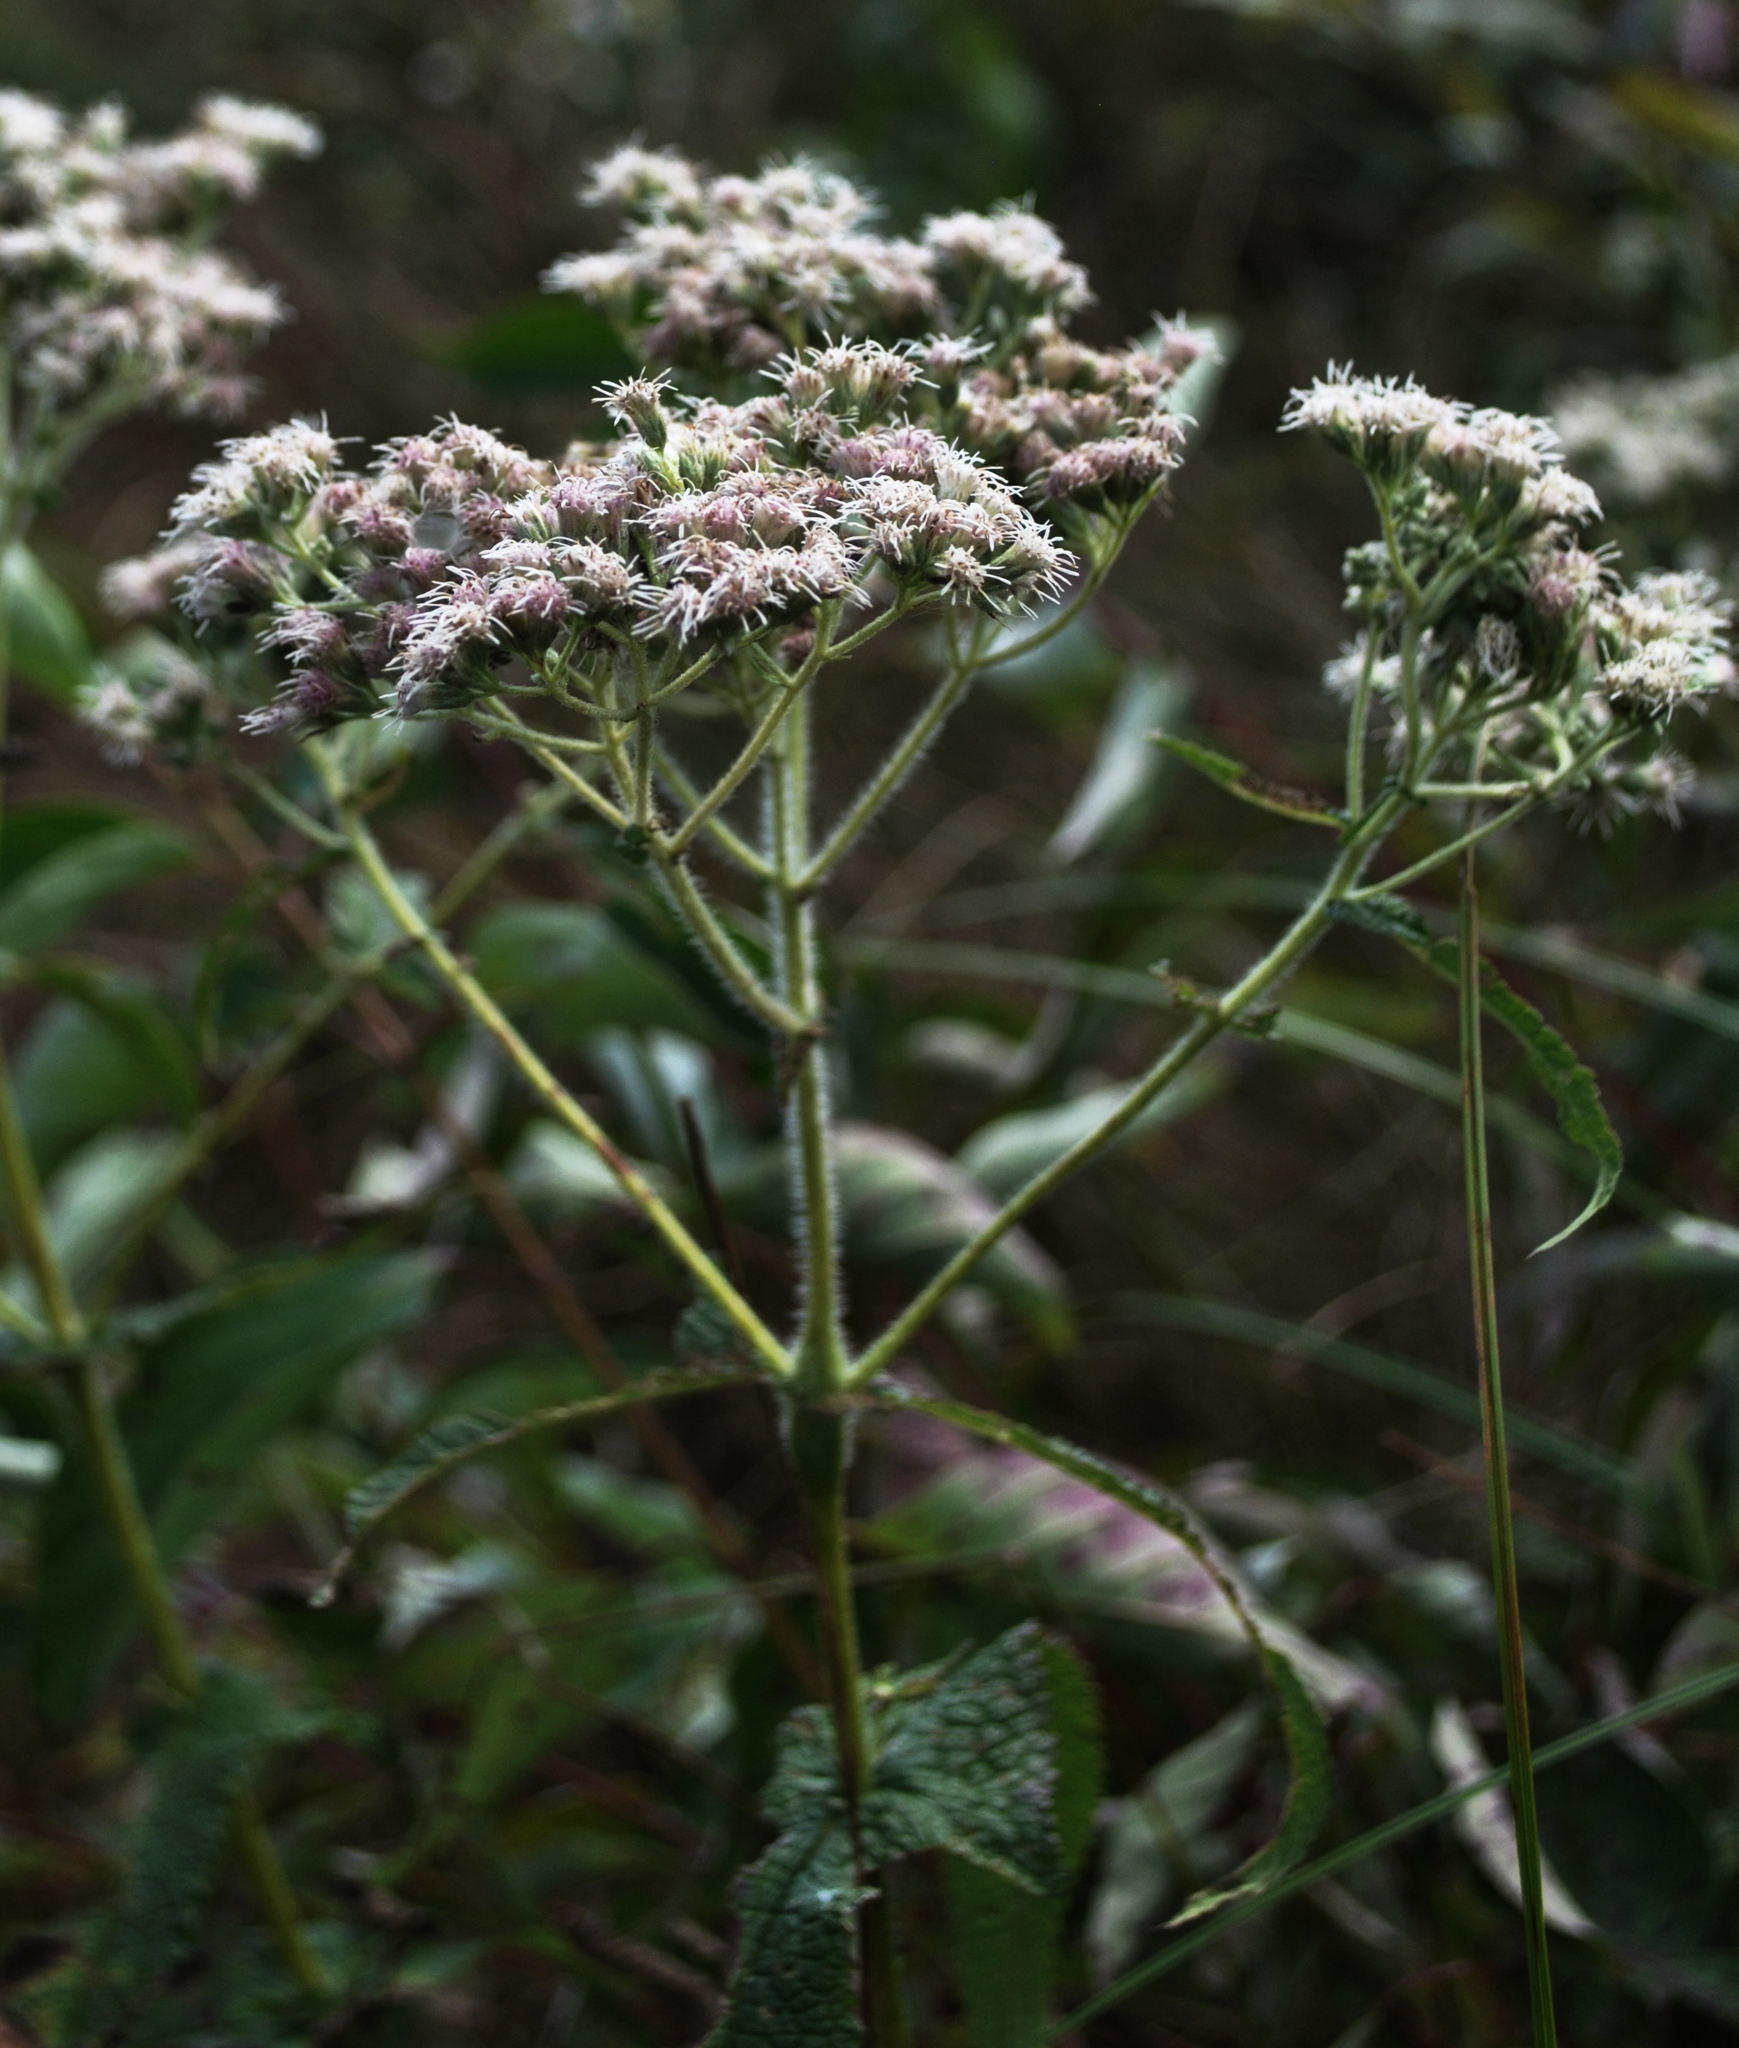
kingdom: Plantae
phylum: Tracheophyta
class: Magnoliopsida
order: Asterales
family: Asteraceae
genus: Eupatorium
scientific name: Eupatorium perfoliatum
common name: Boneset
